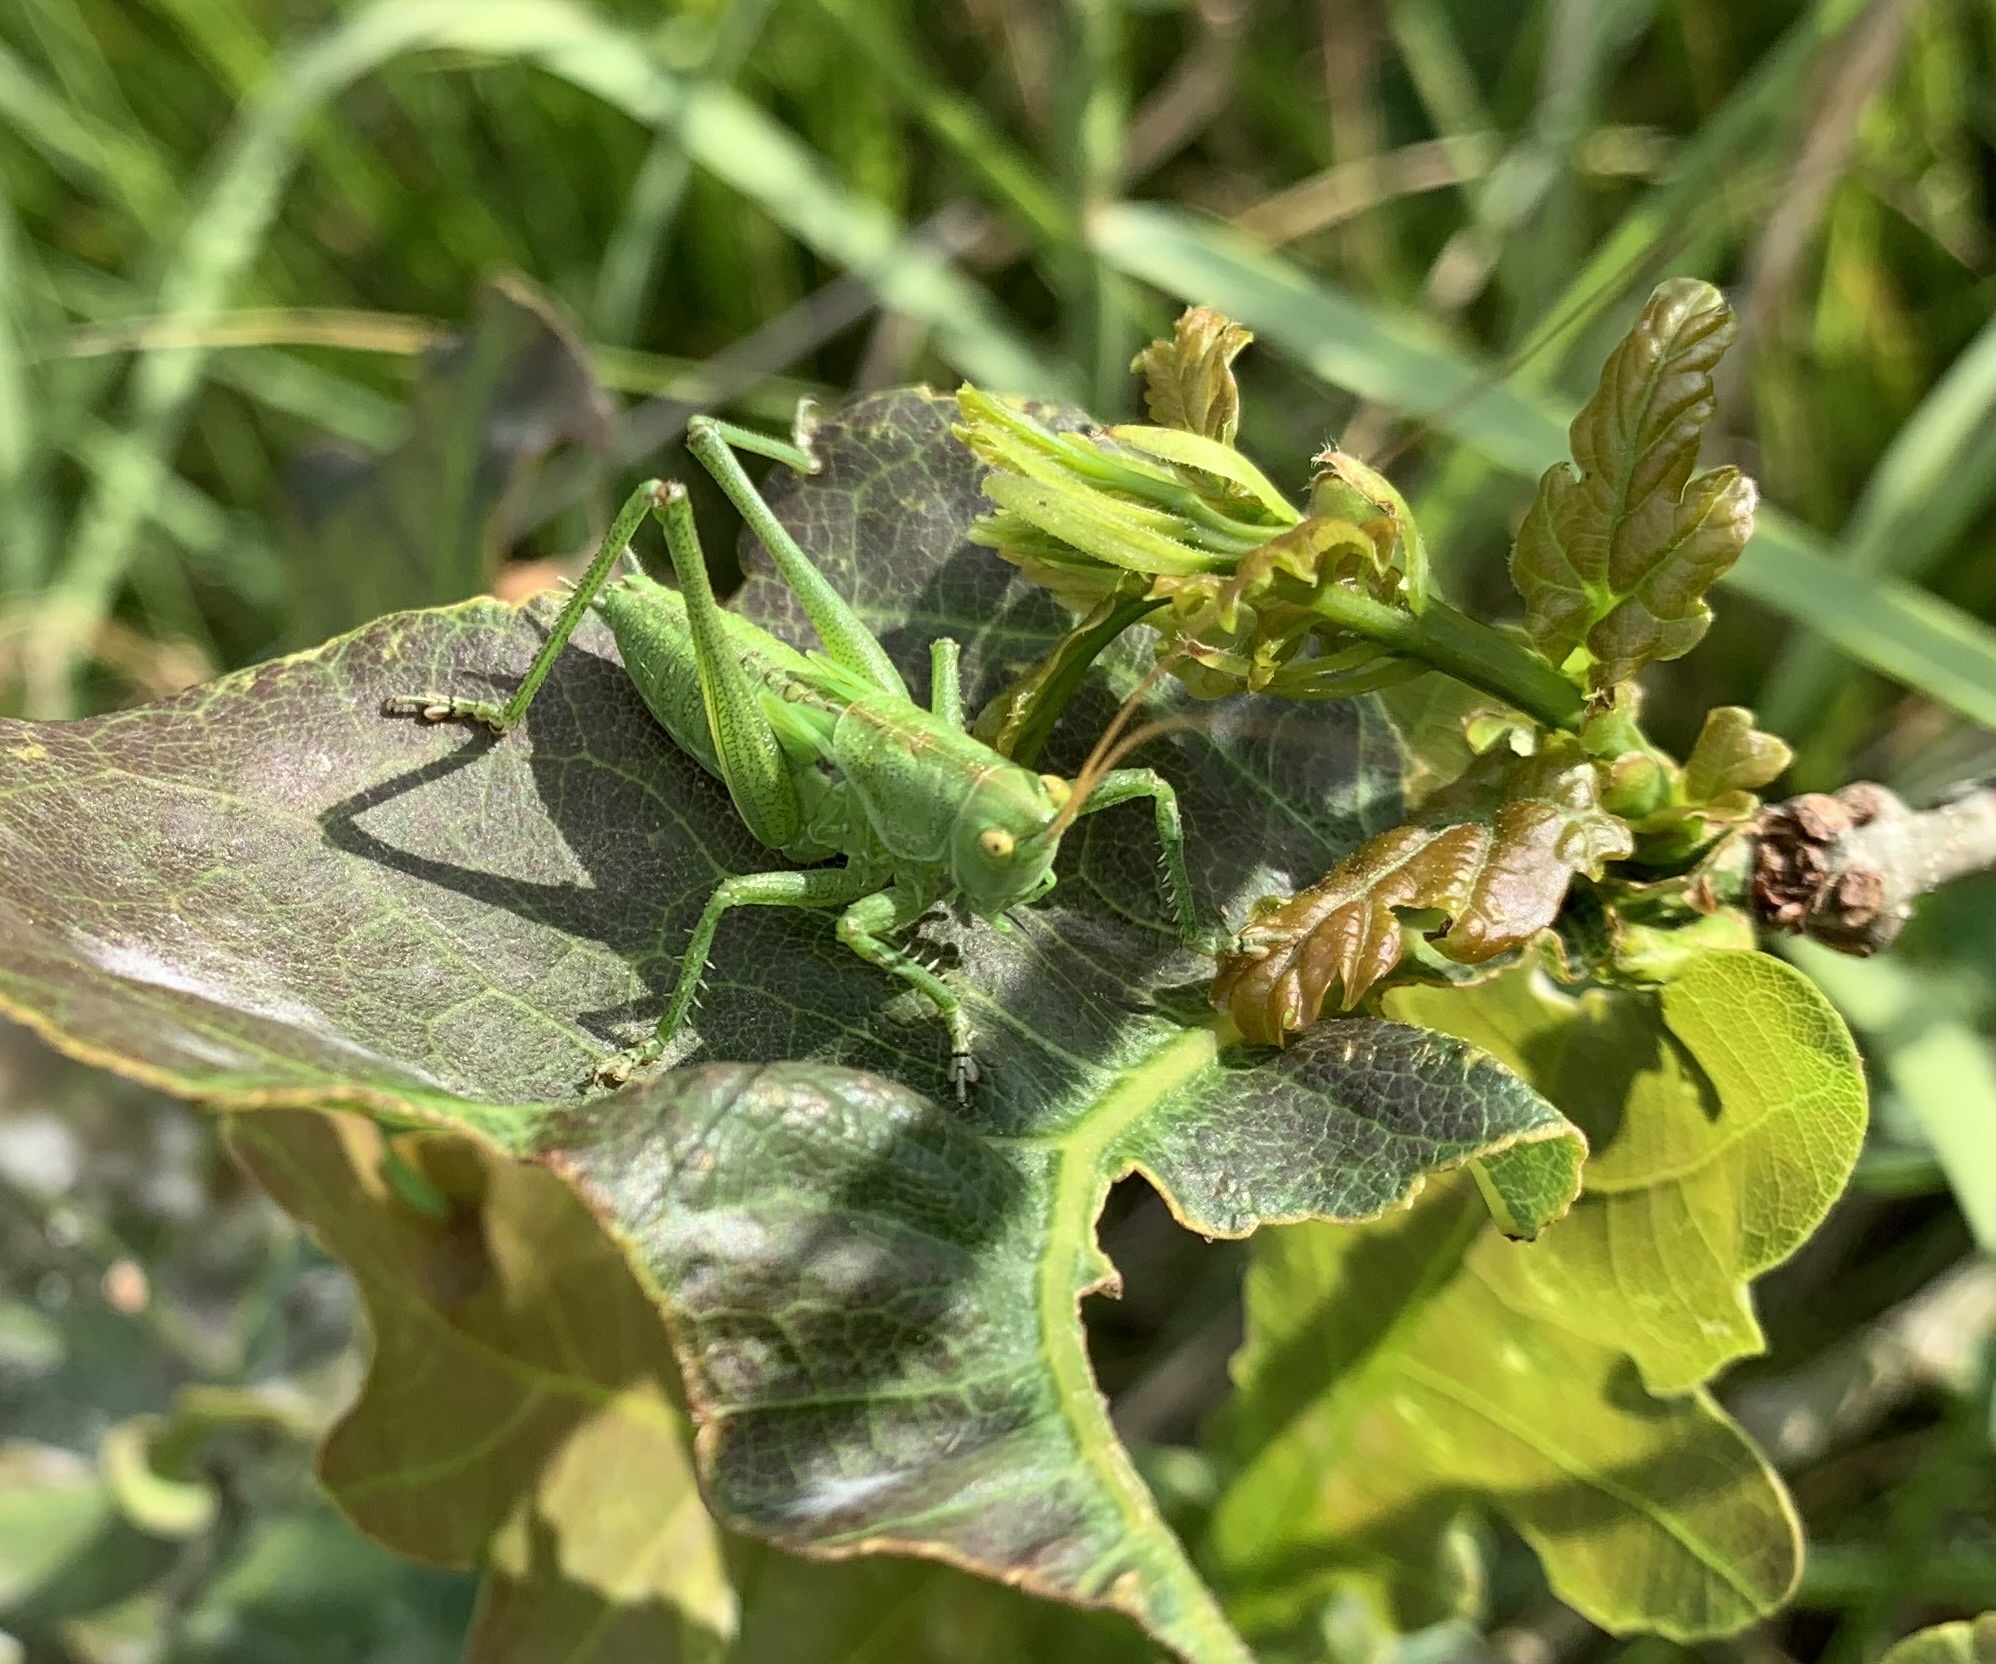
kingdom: Animalia
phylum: Arthropoda
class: Insecta
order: Orthoptera
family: Tettigoniidae
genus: Tettigonia
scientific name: Tettigonia viridissima
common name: Great green bush-cricket
